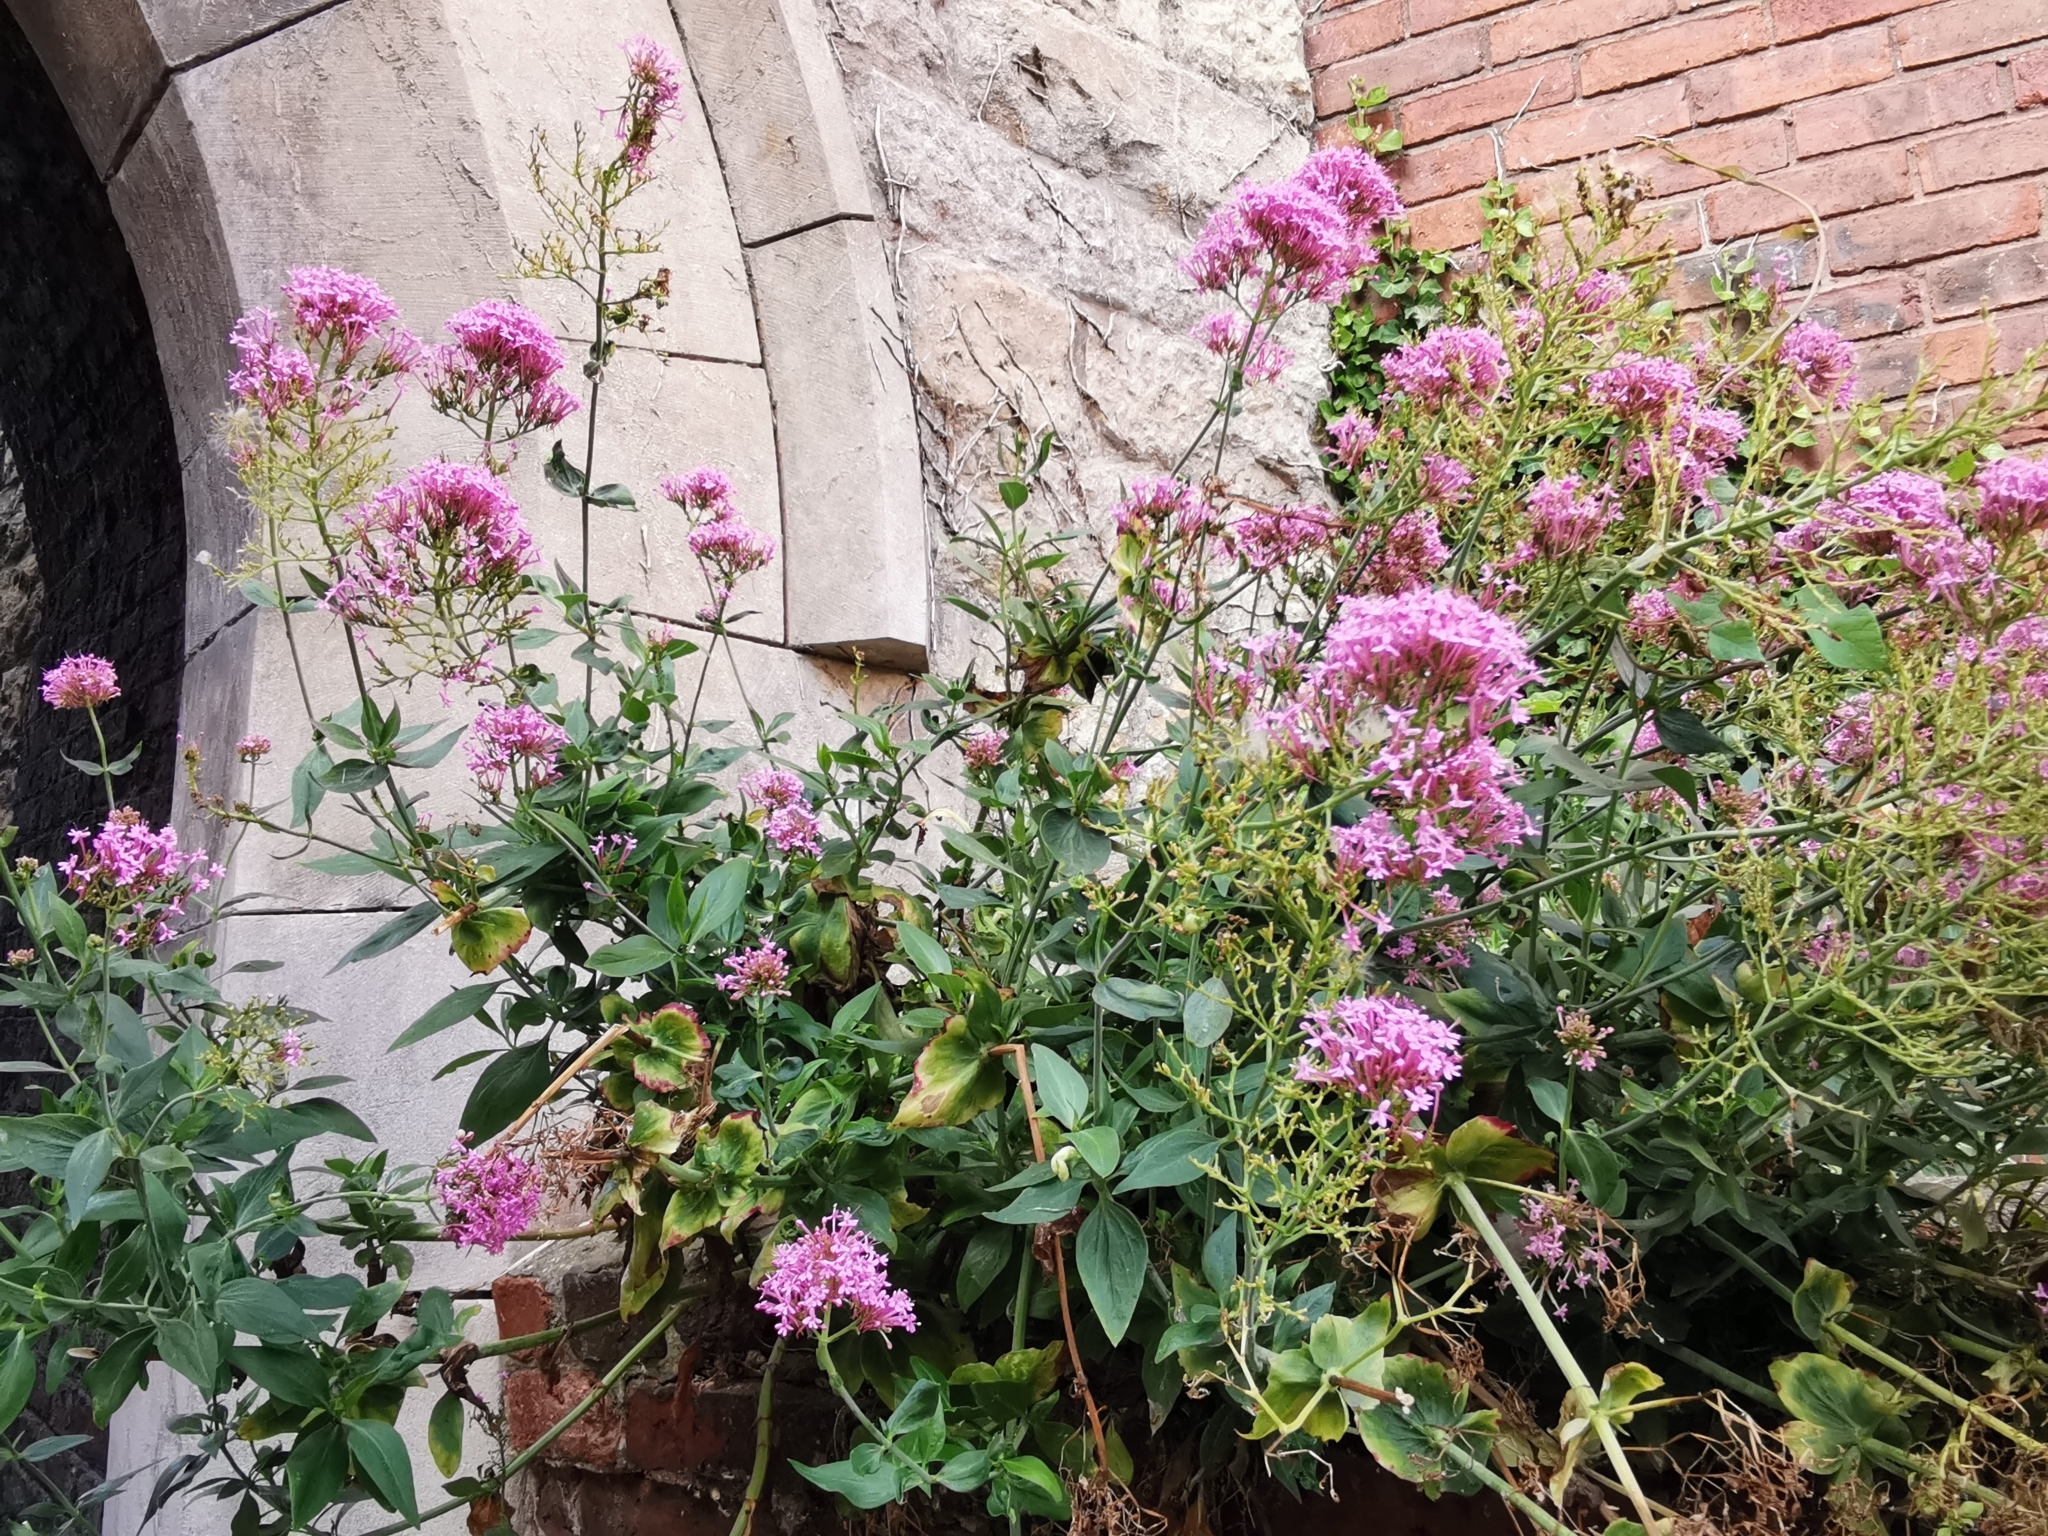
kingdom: Plantae
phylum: Tracheophyta
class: Magnoliopsida
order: Dipsacales
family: Caprifoliaceae
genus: Centranthus
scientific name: Centranthus ruber
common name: Red valerian
